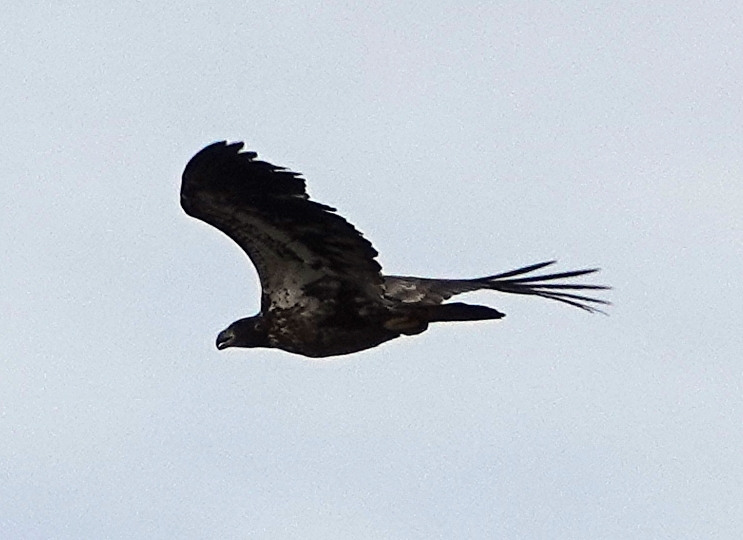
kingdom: Animalia
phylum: Chordata
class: Aves
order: Accipitriformes
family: Accipitridae
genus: Haliaeetus
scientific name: Haliaeetus leucocephalus
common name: Bald eagle
